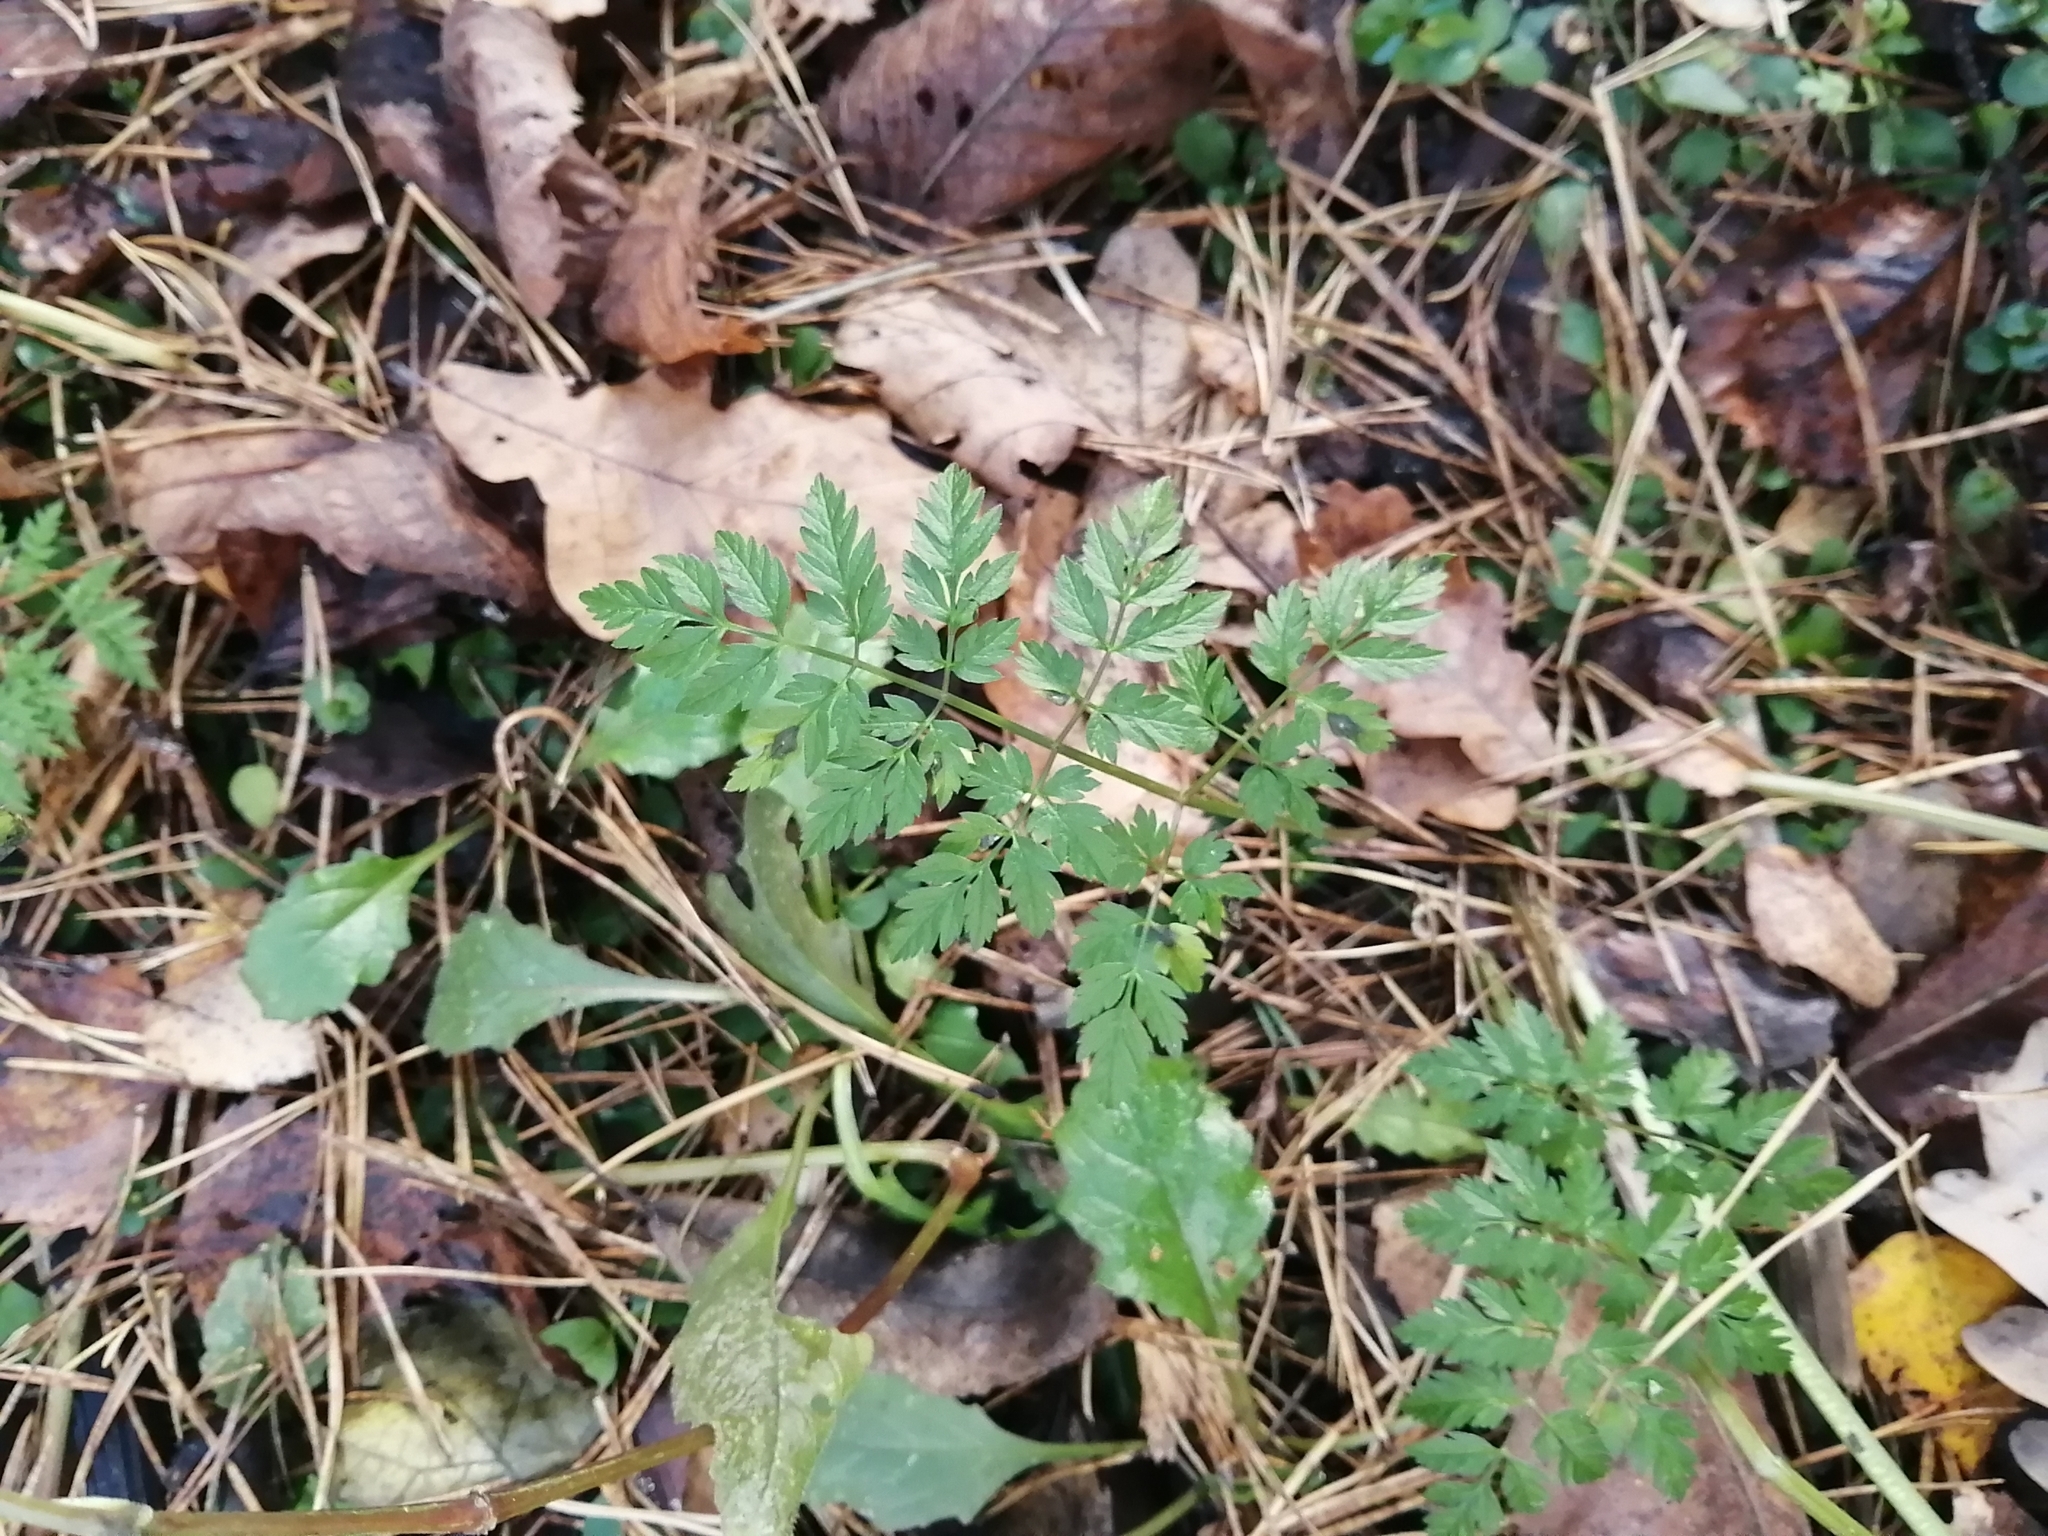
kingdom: Plantae
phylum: Tracheophyta
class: Magnoliopsida
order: Apiales
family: Apiaceae
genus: Anthriscus
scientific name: Anthriscus sylvestris
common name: Cow parsley
